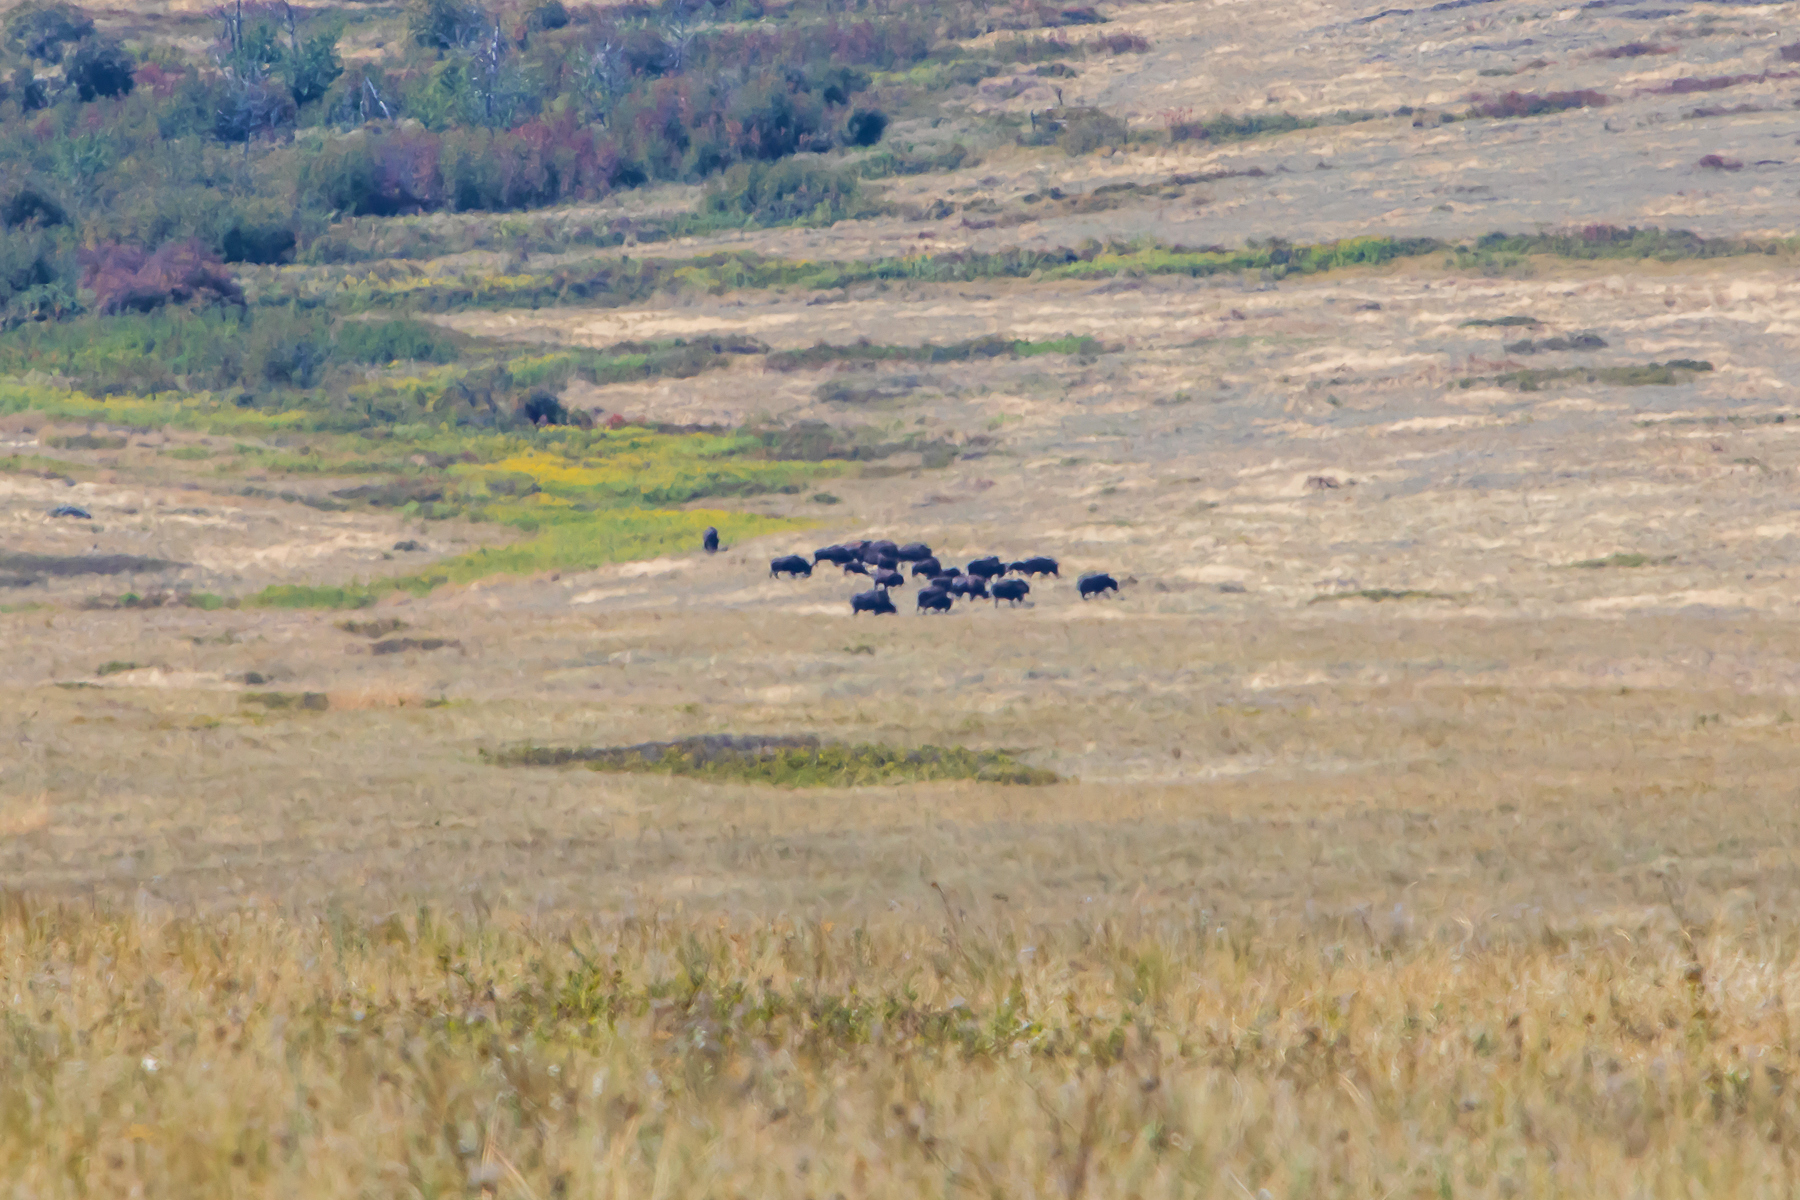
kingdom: Animalia
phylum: Chordata
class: Mammalia
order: Artiodactyla
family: Bovidae
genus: Bison
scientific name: Bison bison
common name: American bison
